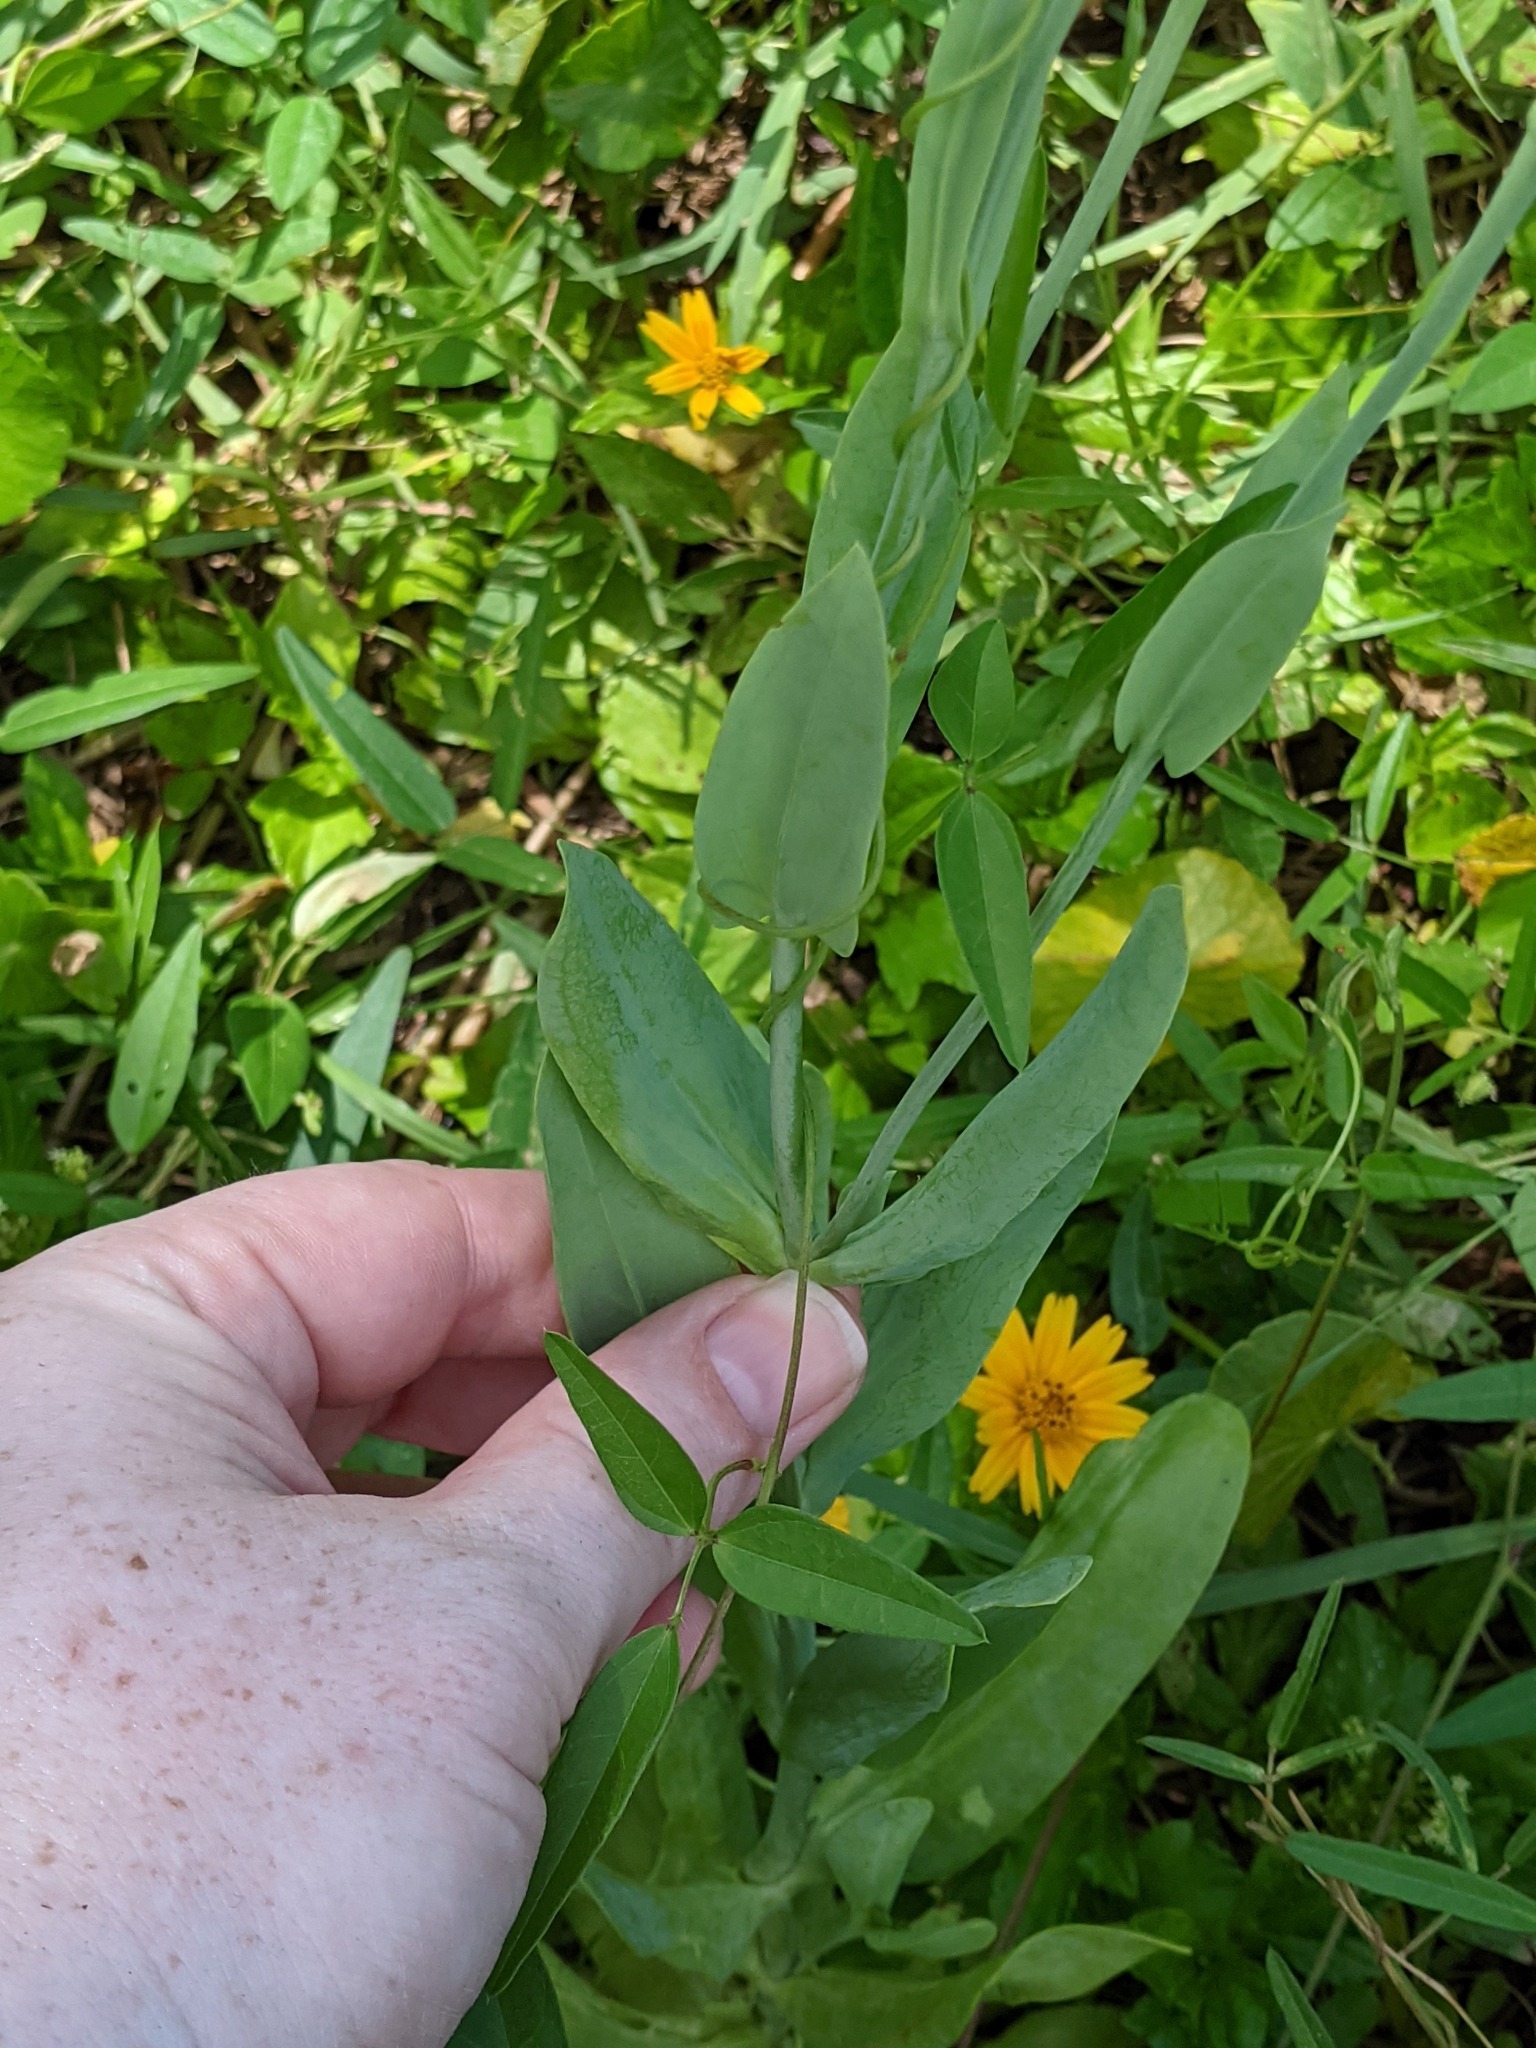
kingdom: Plantae
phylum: Tracheophyta
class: Magnoliopsida
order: Gentianales
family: Gentianaceae
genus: Eustoma
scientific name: Eustoma exaltatum
